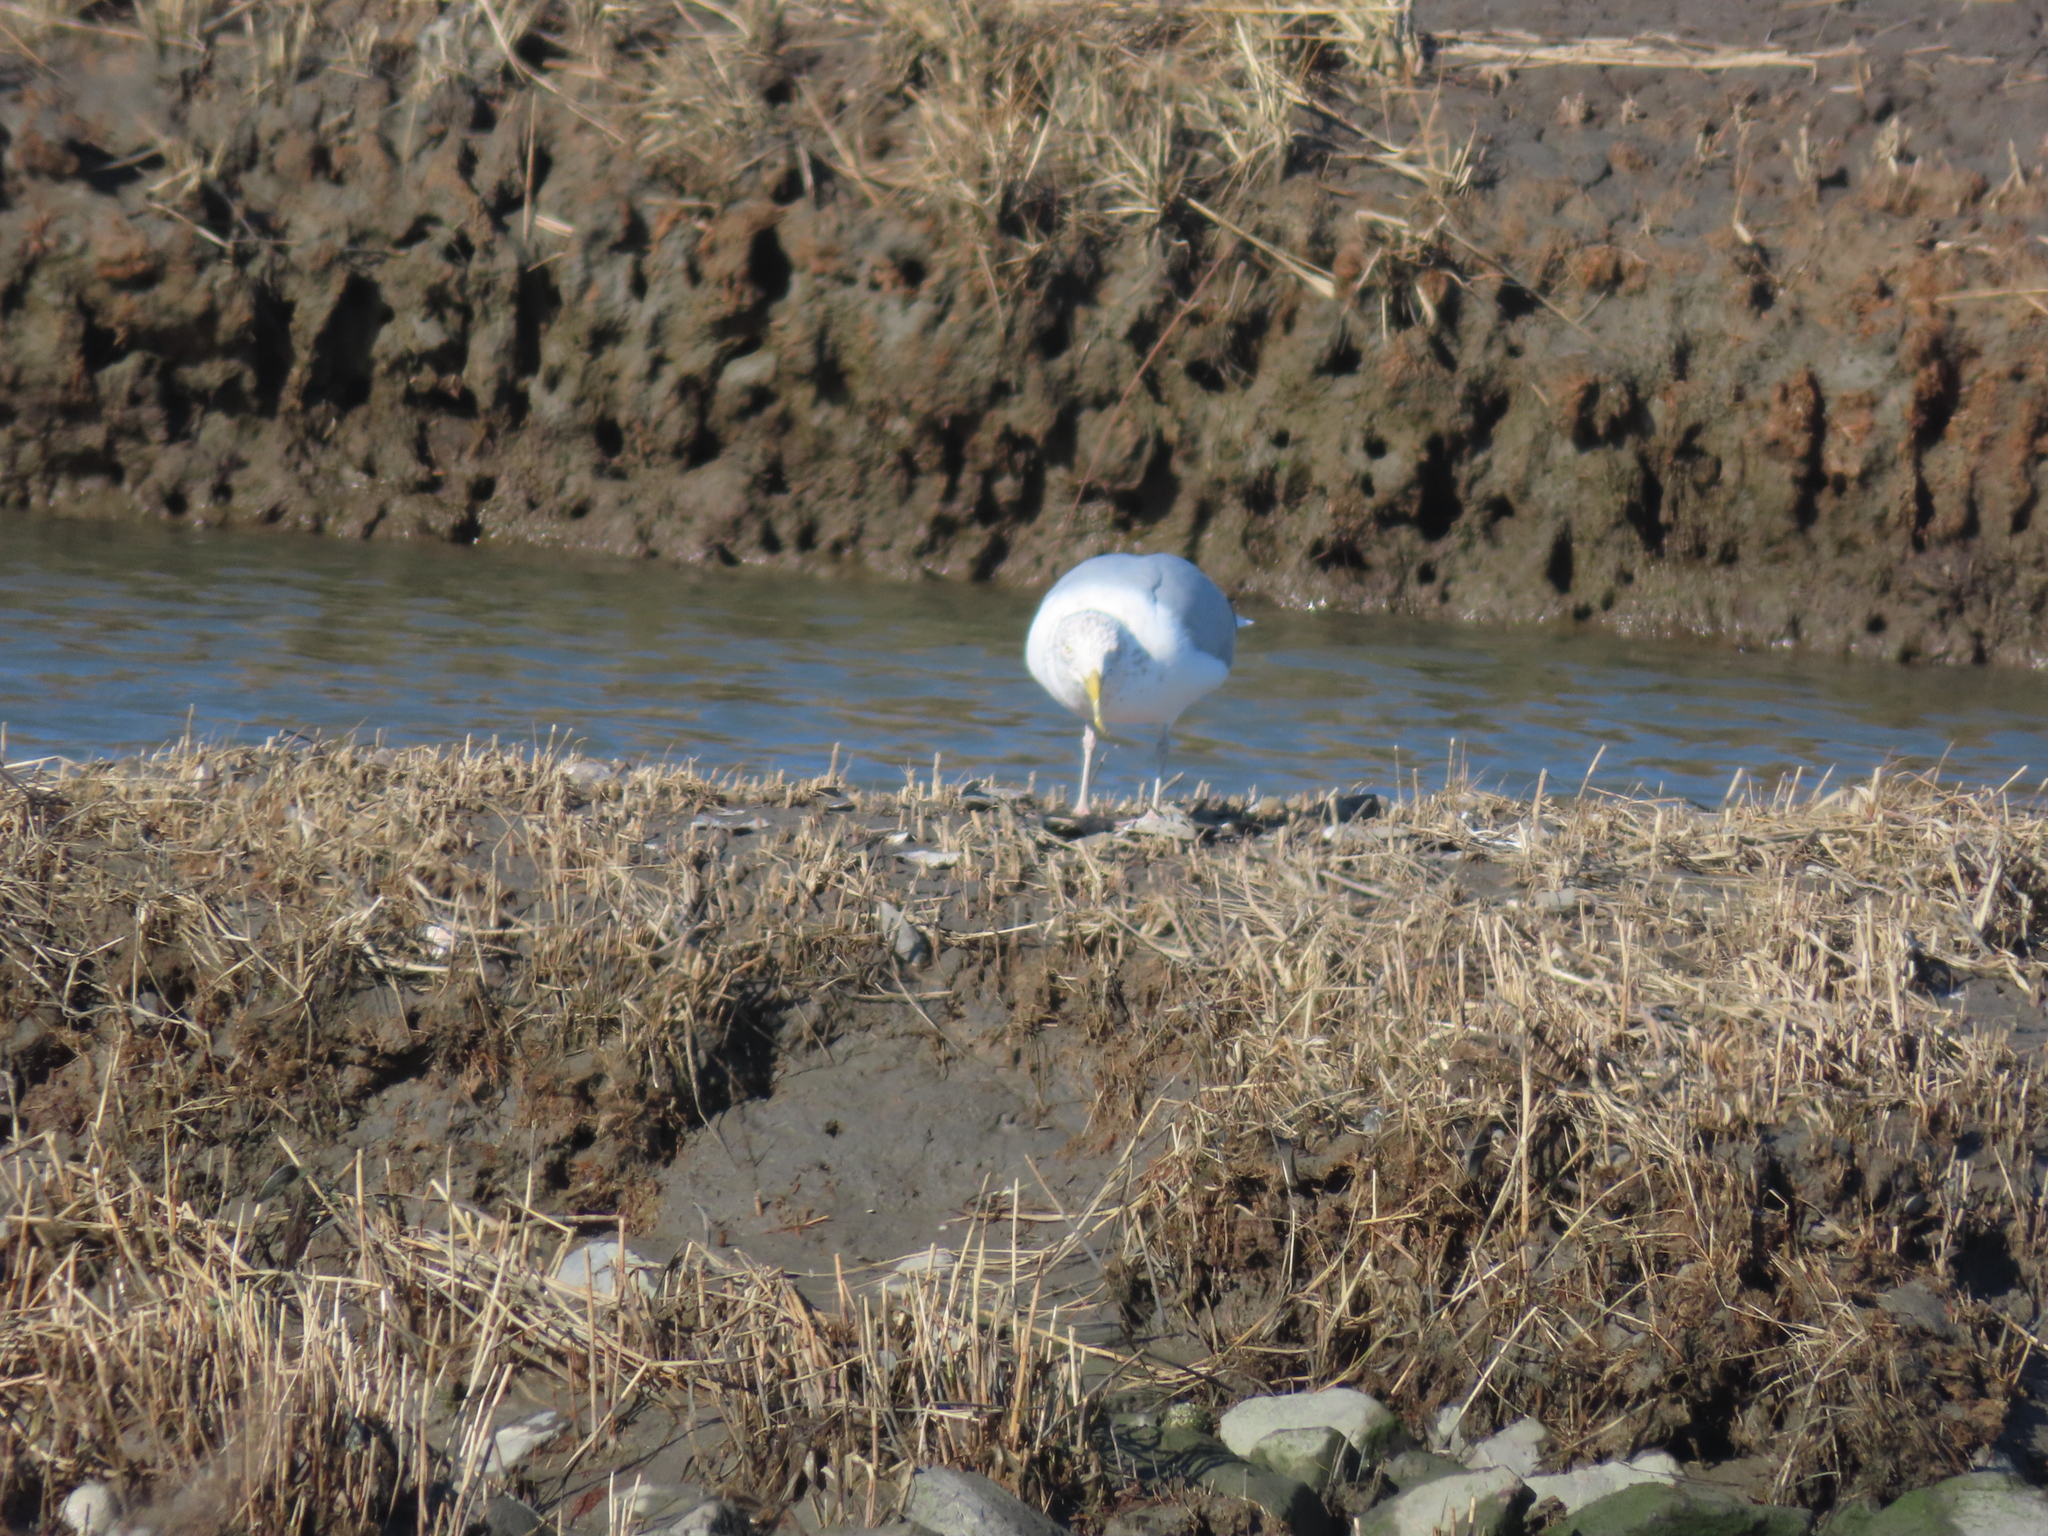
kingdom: Animalia
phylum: Chordata
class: Aves
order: Charadriiformes
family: Laridae
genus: Larus
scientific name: Larus argentatus
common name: Herring gull
